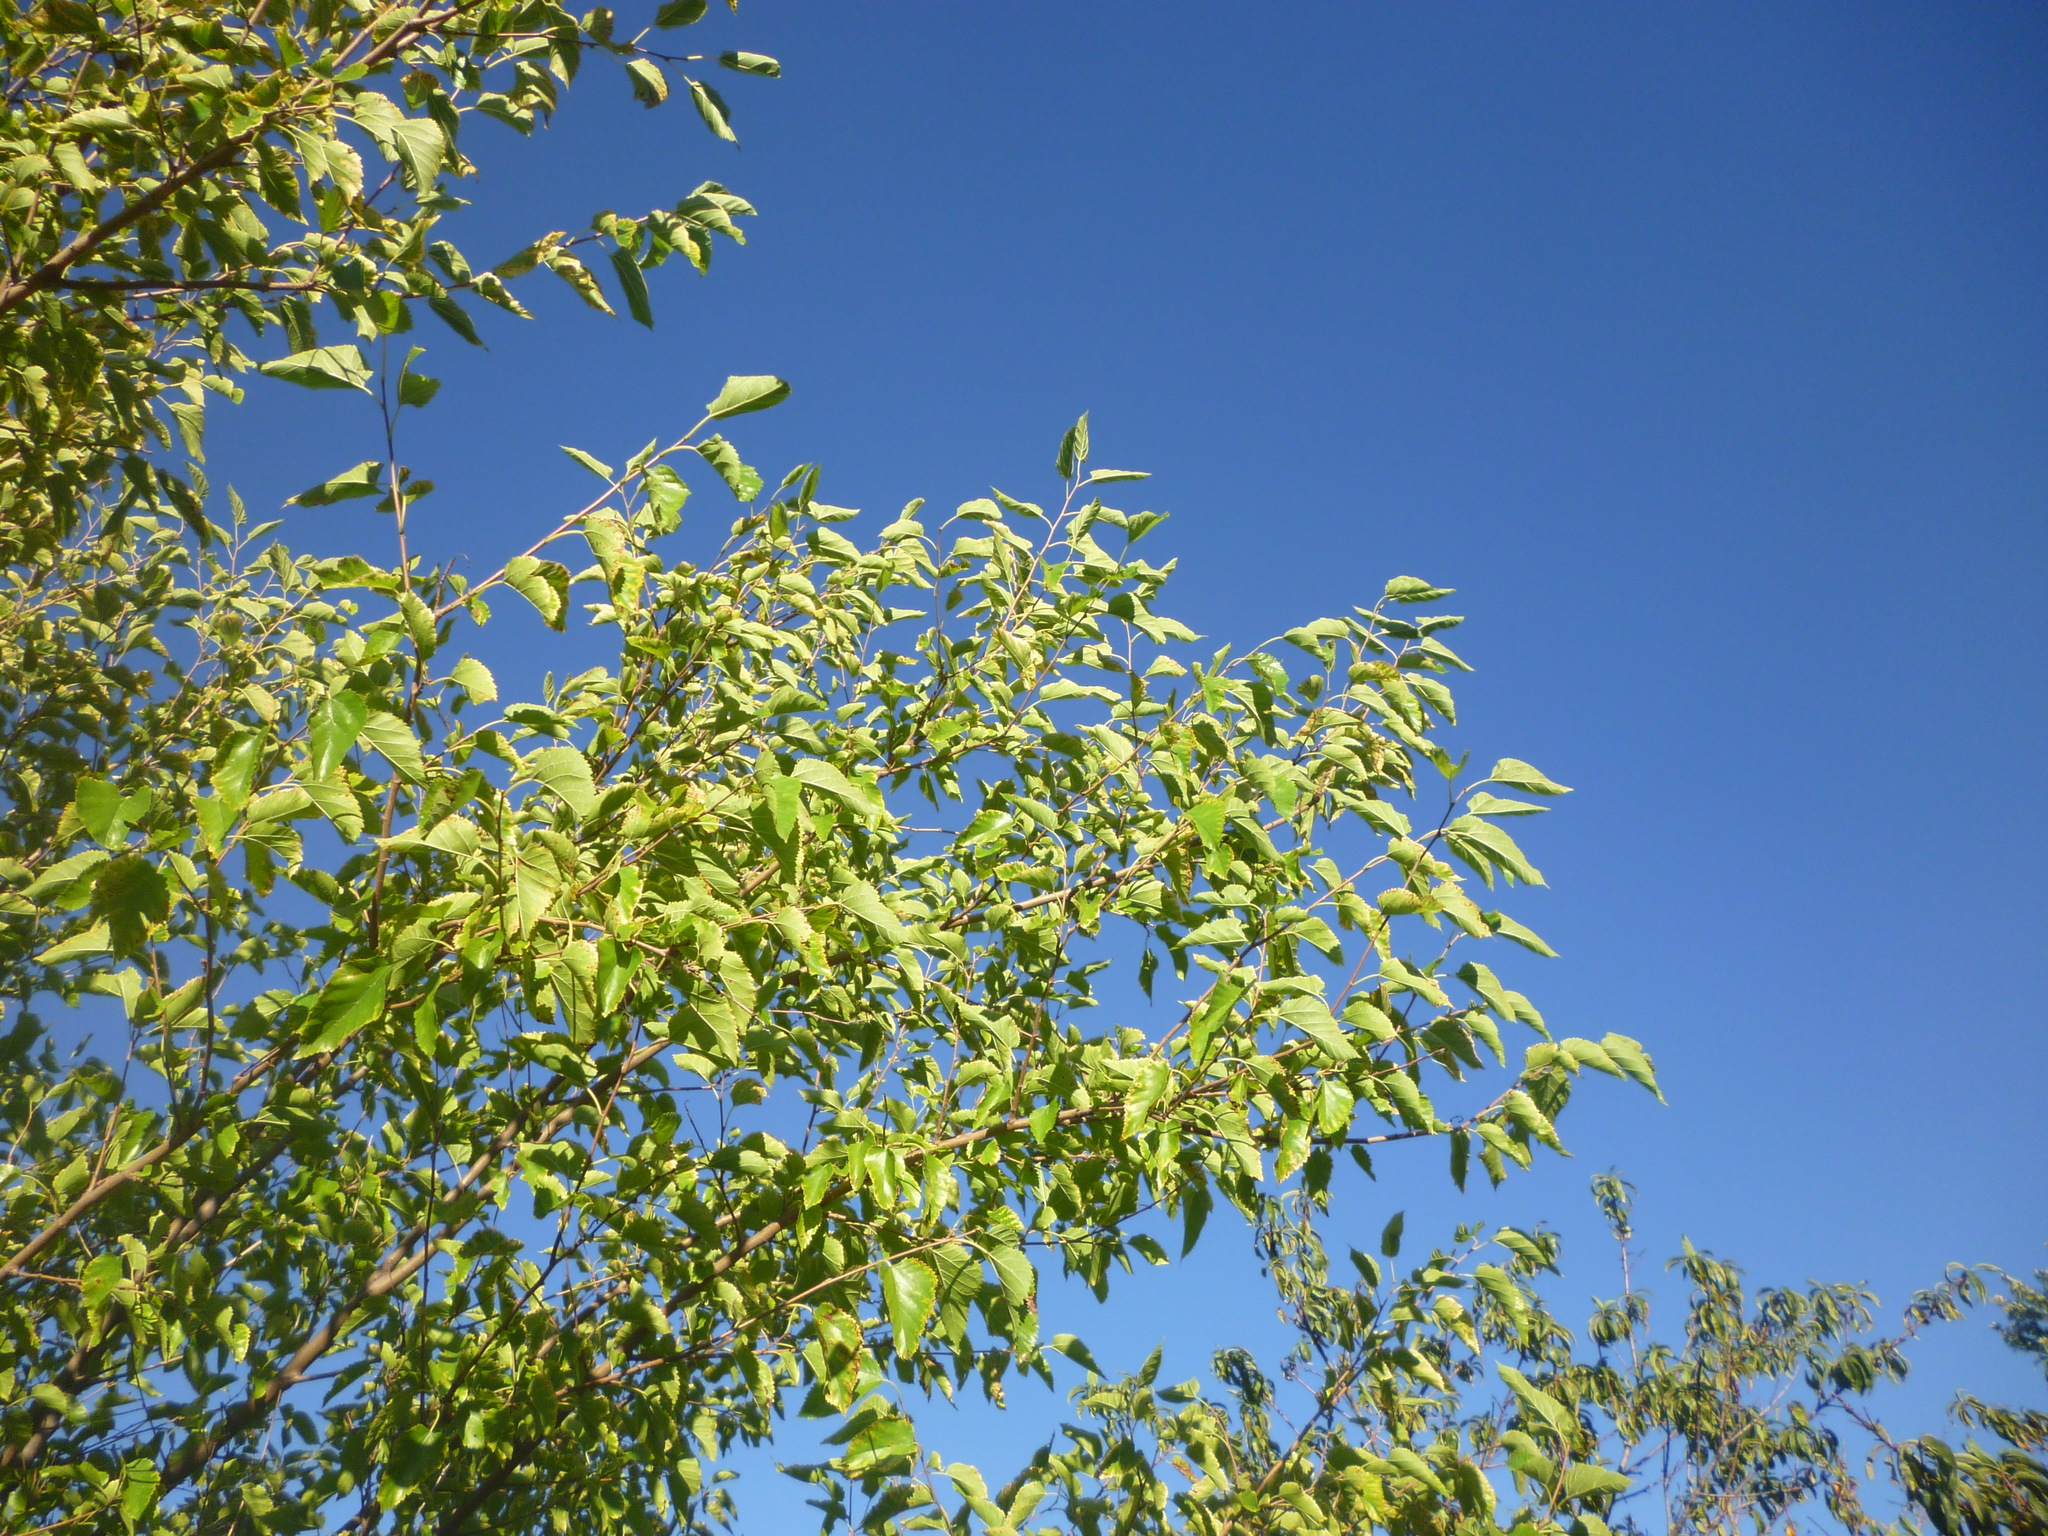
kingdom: Plantae
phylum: Tracheophyta
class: Magnoliopsida
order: Rosales
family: Moraceae
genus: Morus
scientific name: Morus alba
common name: White mulberry
